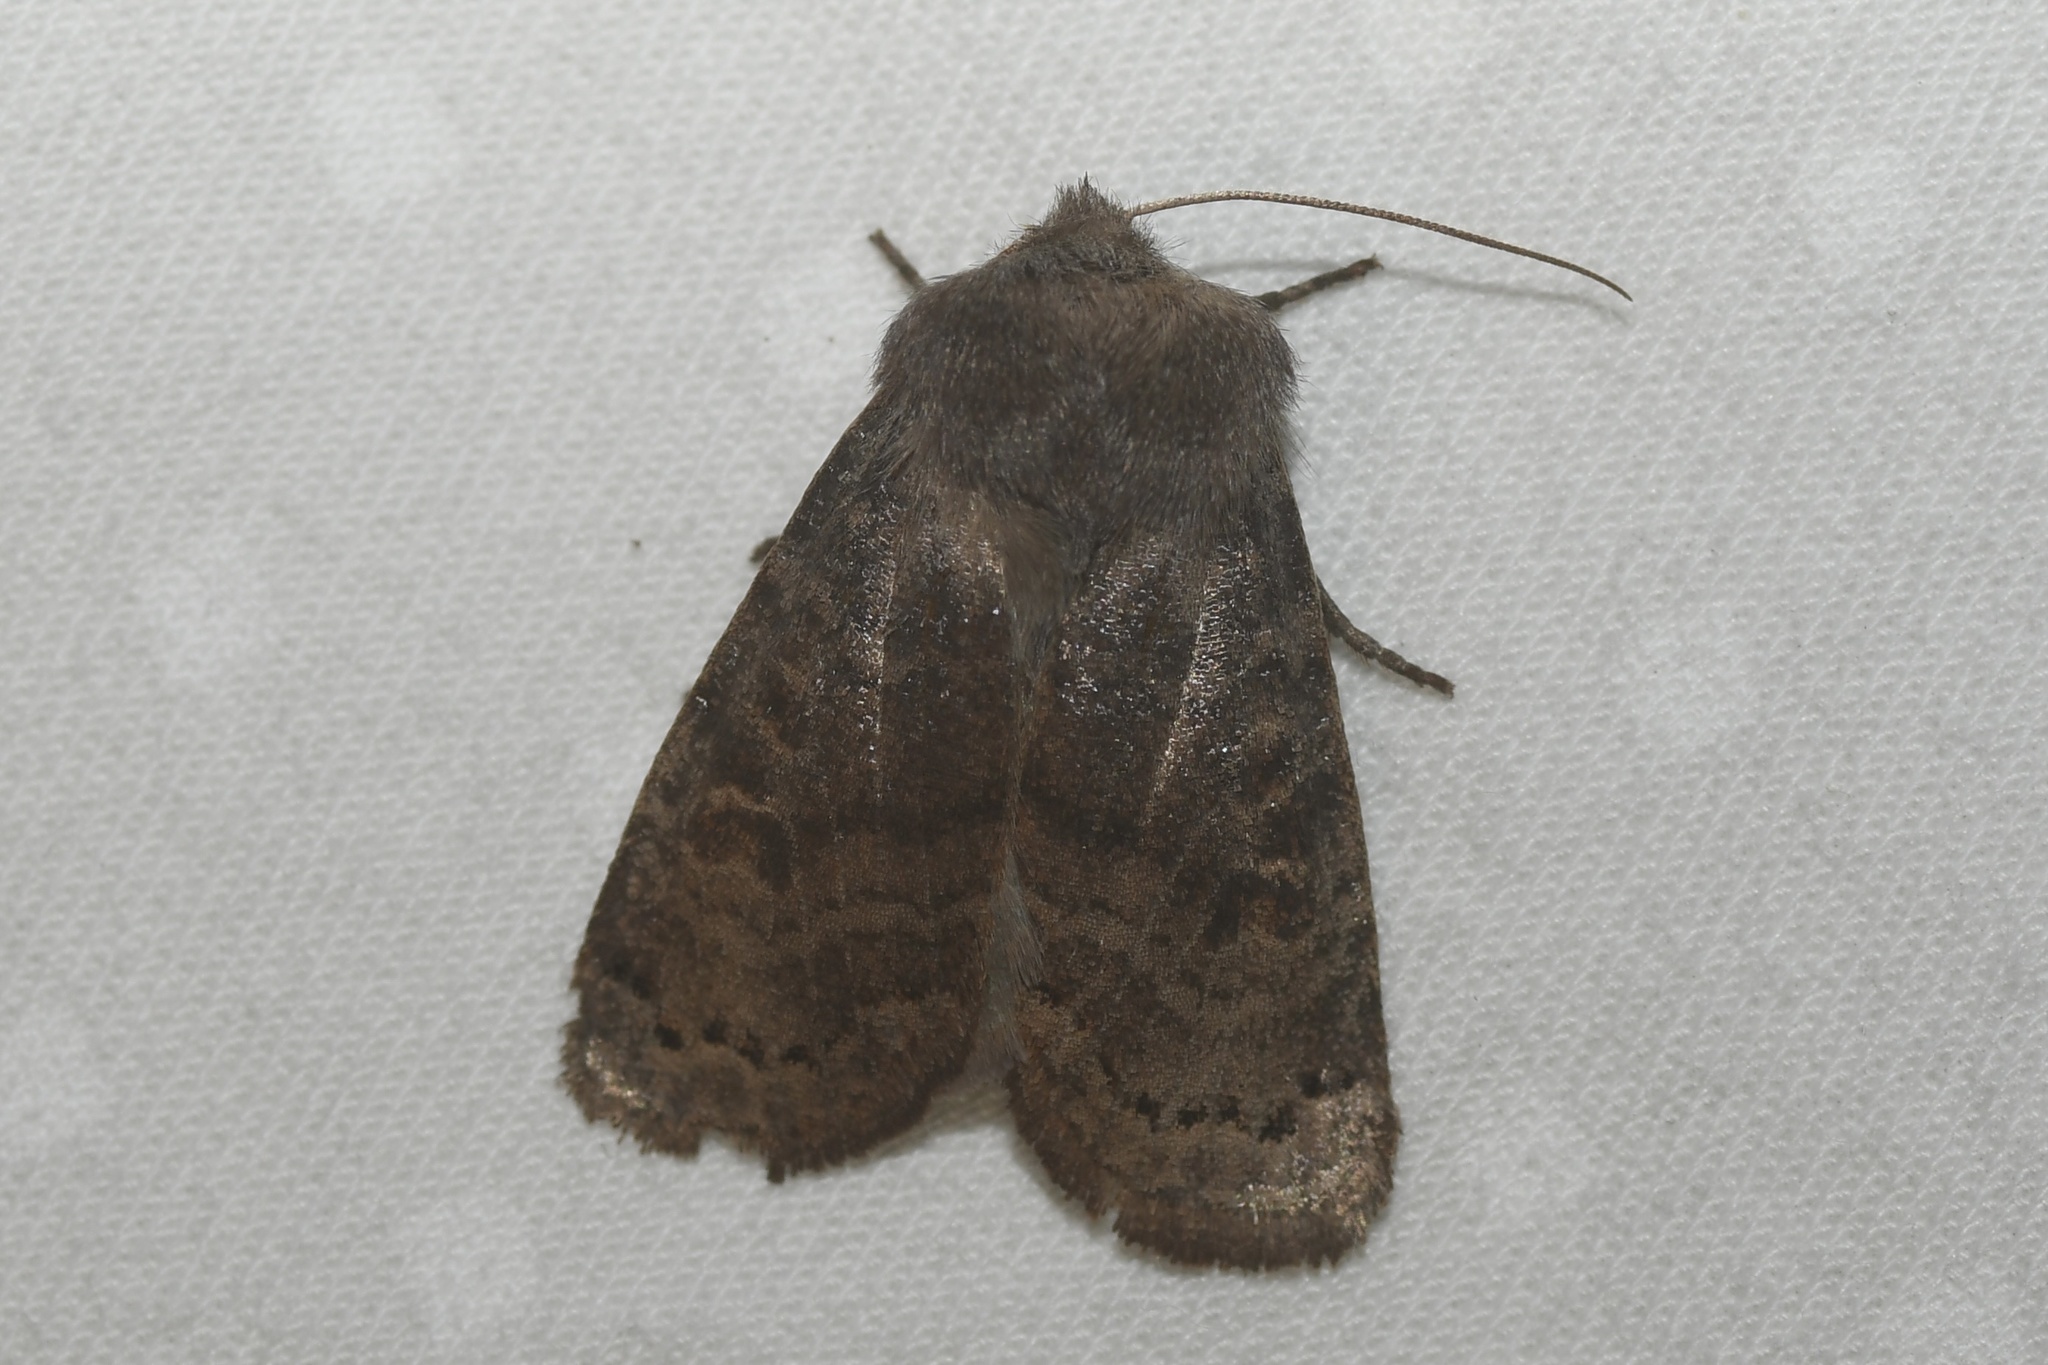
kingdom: Animalia
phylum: Arthropoda
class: Insecta
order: Lepidoptera
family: Noctuidae
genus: Homoglaea
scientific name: Homoglaea hircina
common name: Goat sallow
